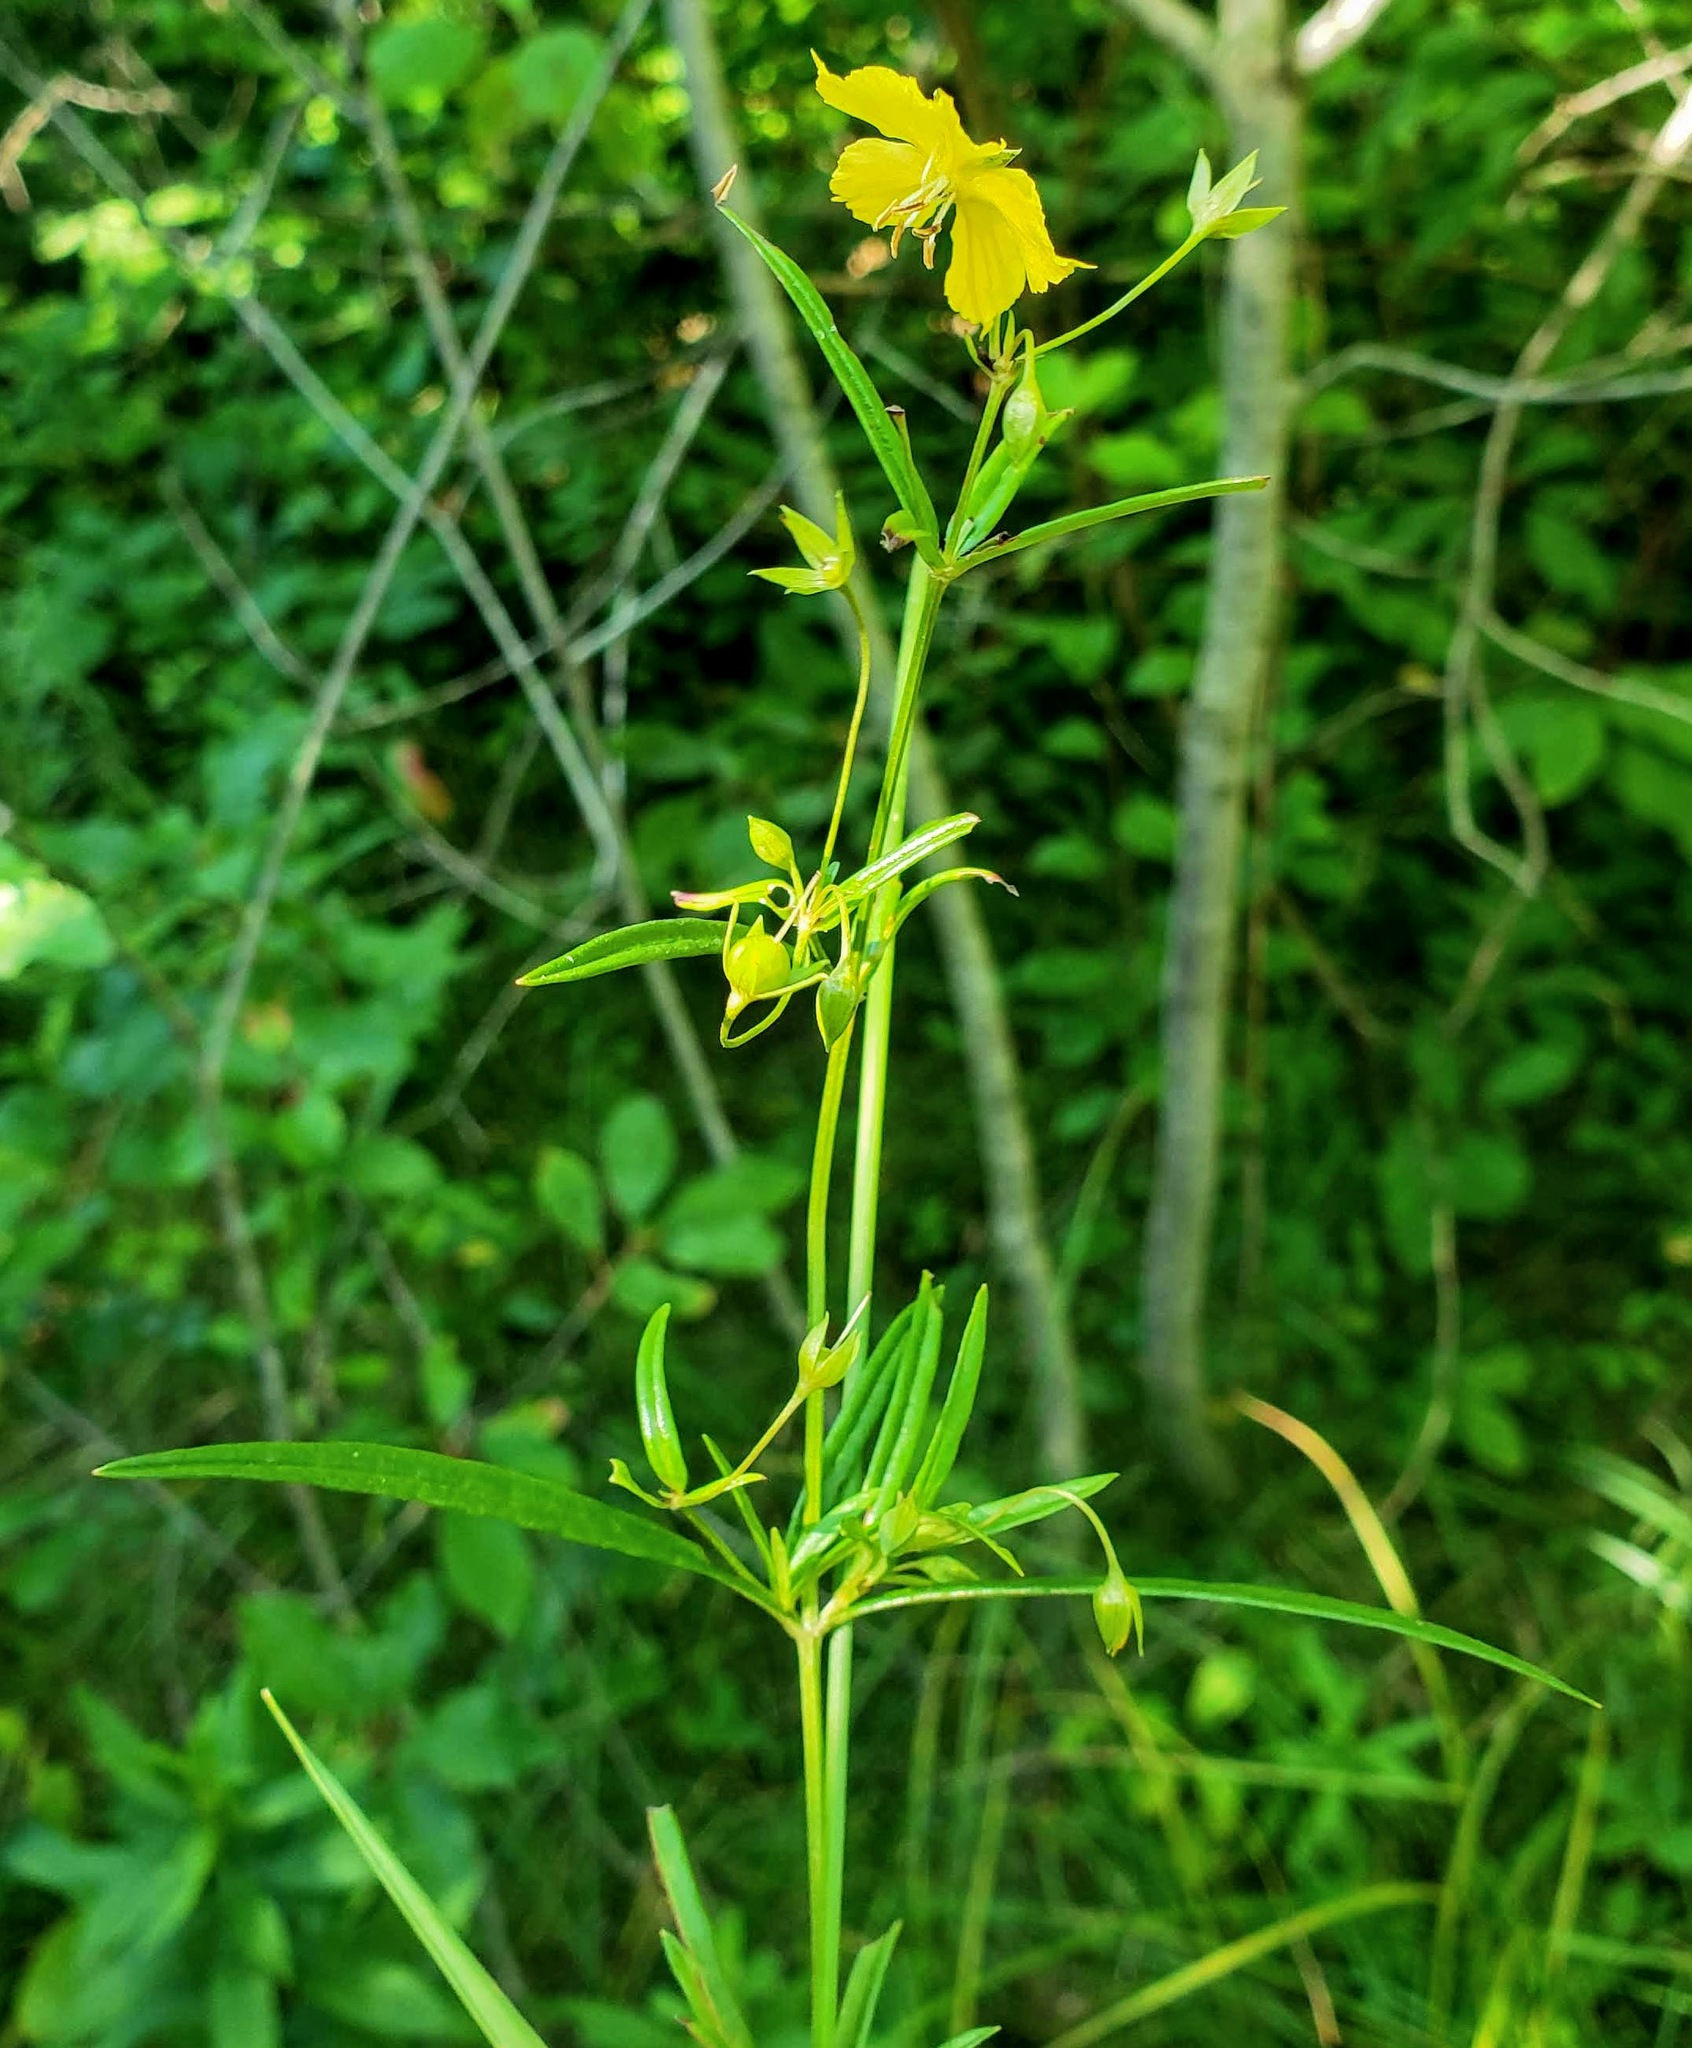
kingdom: Plantae
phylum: Tracheophyta
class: Magnoliopsida
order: Ericales
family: Primulaceae
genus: Lysimachia
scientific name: Lysimachia quadriflora
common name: Four-flowered loosestrife
